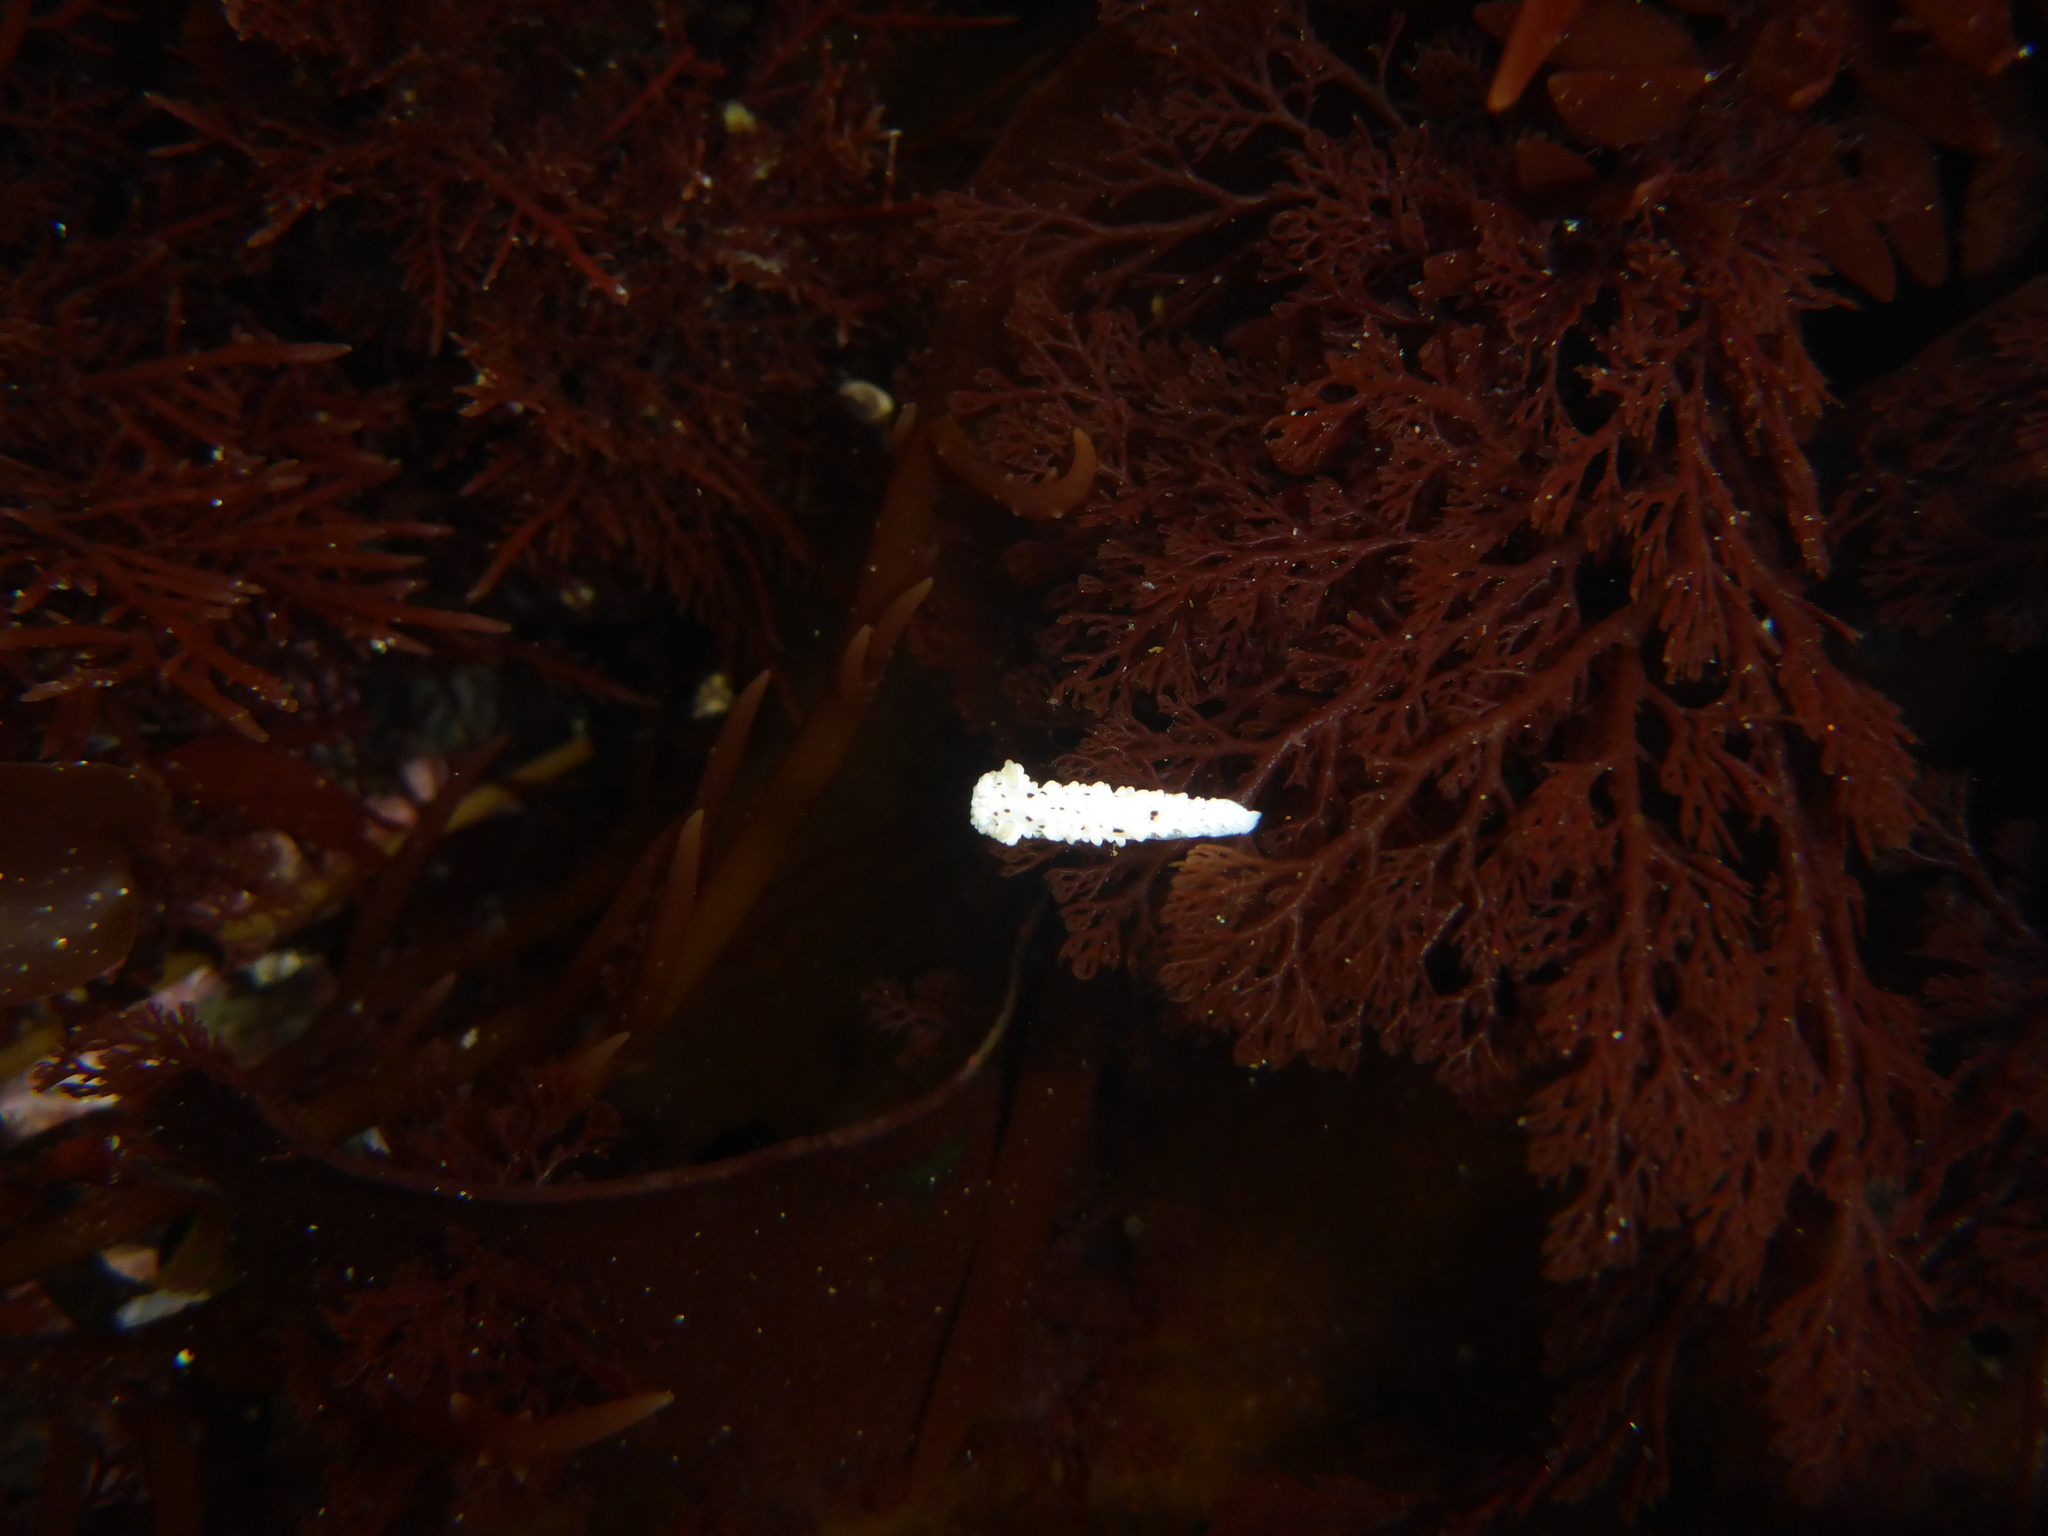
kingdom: Animalia
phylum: Mollusca
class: Gastropoda
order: Nudibranchia
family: Aegiridae
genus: Aegires
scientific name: Aegires albopunctatus
